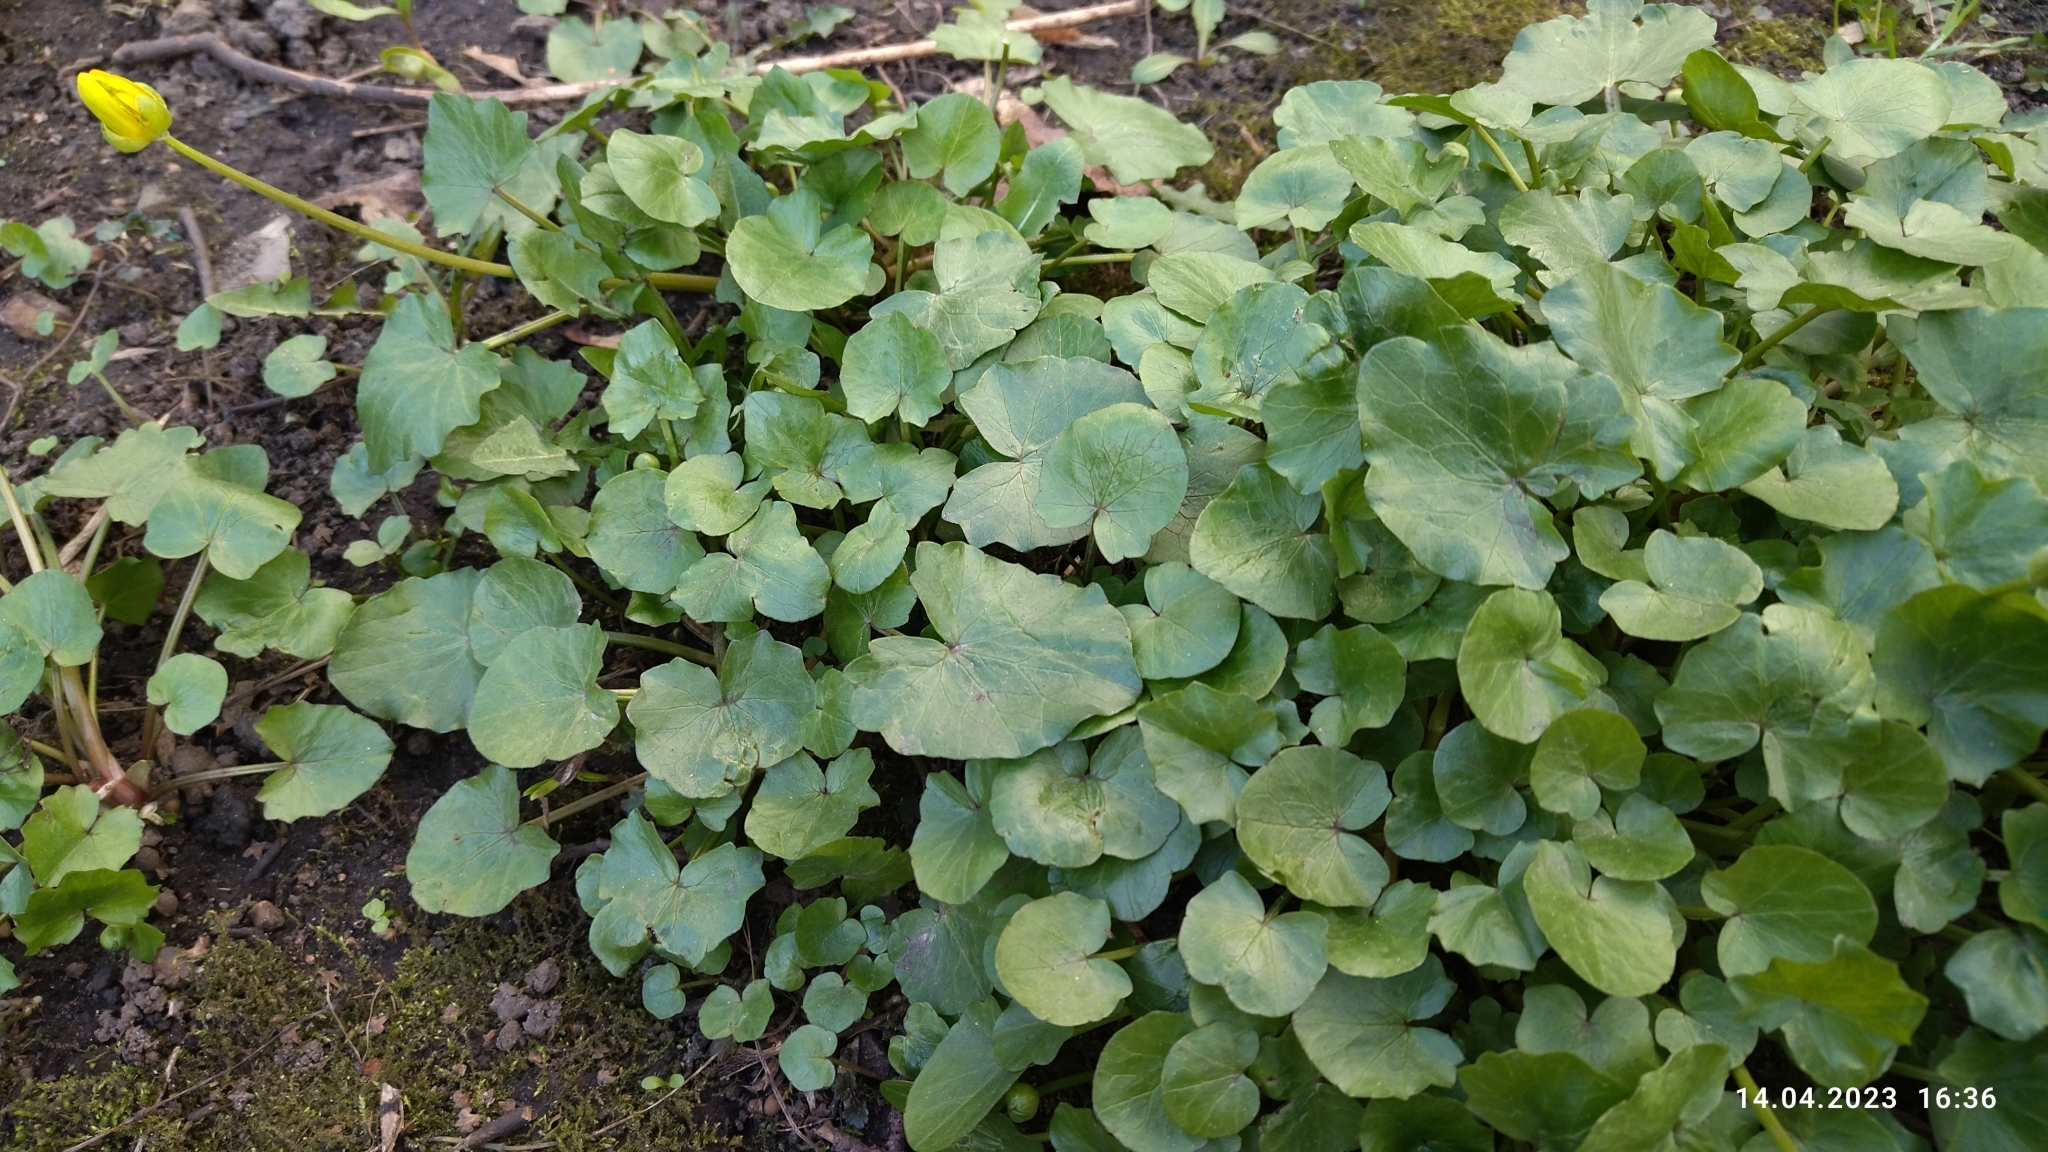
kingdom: Plantae
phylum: Tracheophyta
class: Magnoliopsida
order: Ranunculales
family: Ranunculaceae
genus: Ficaria
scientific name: Ficaria verna
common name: Lesser celandine
